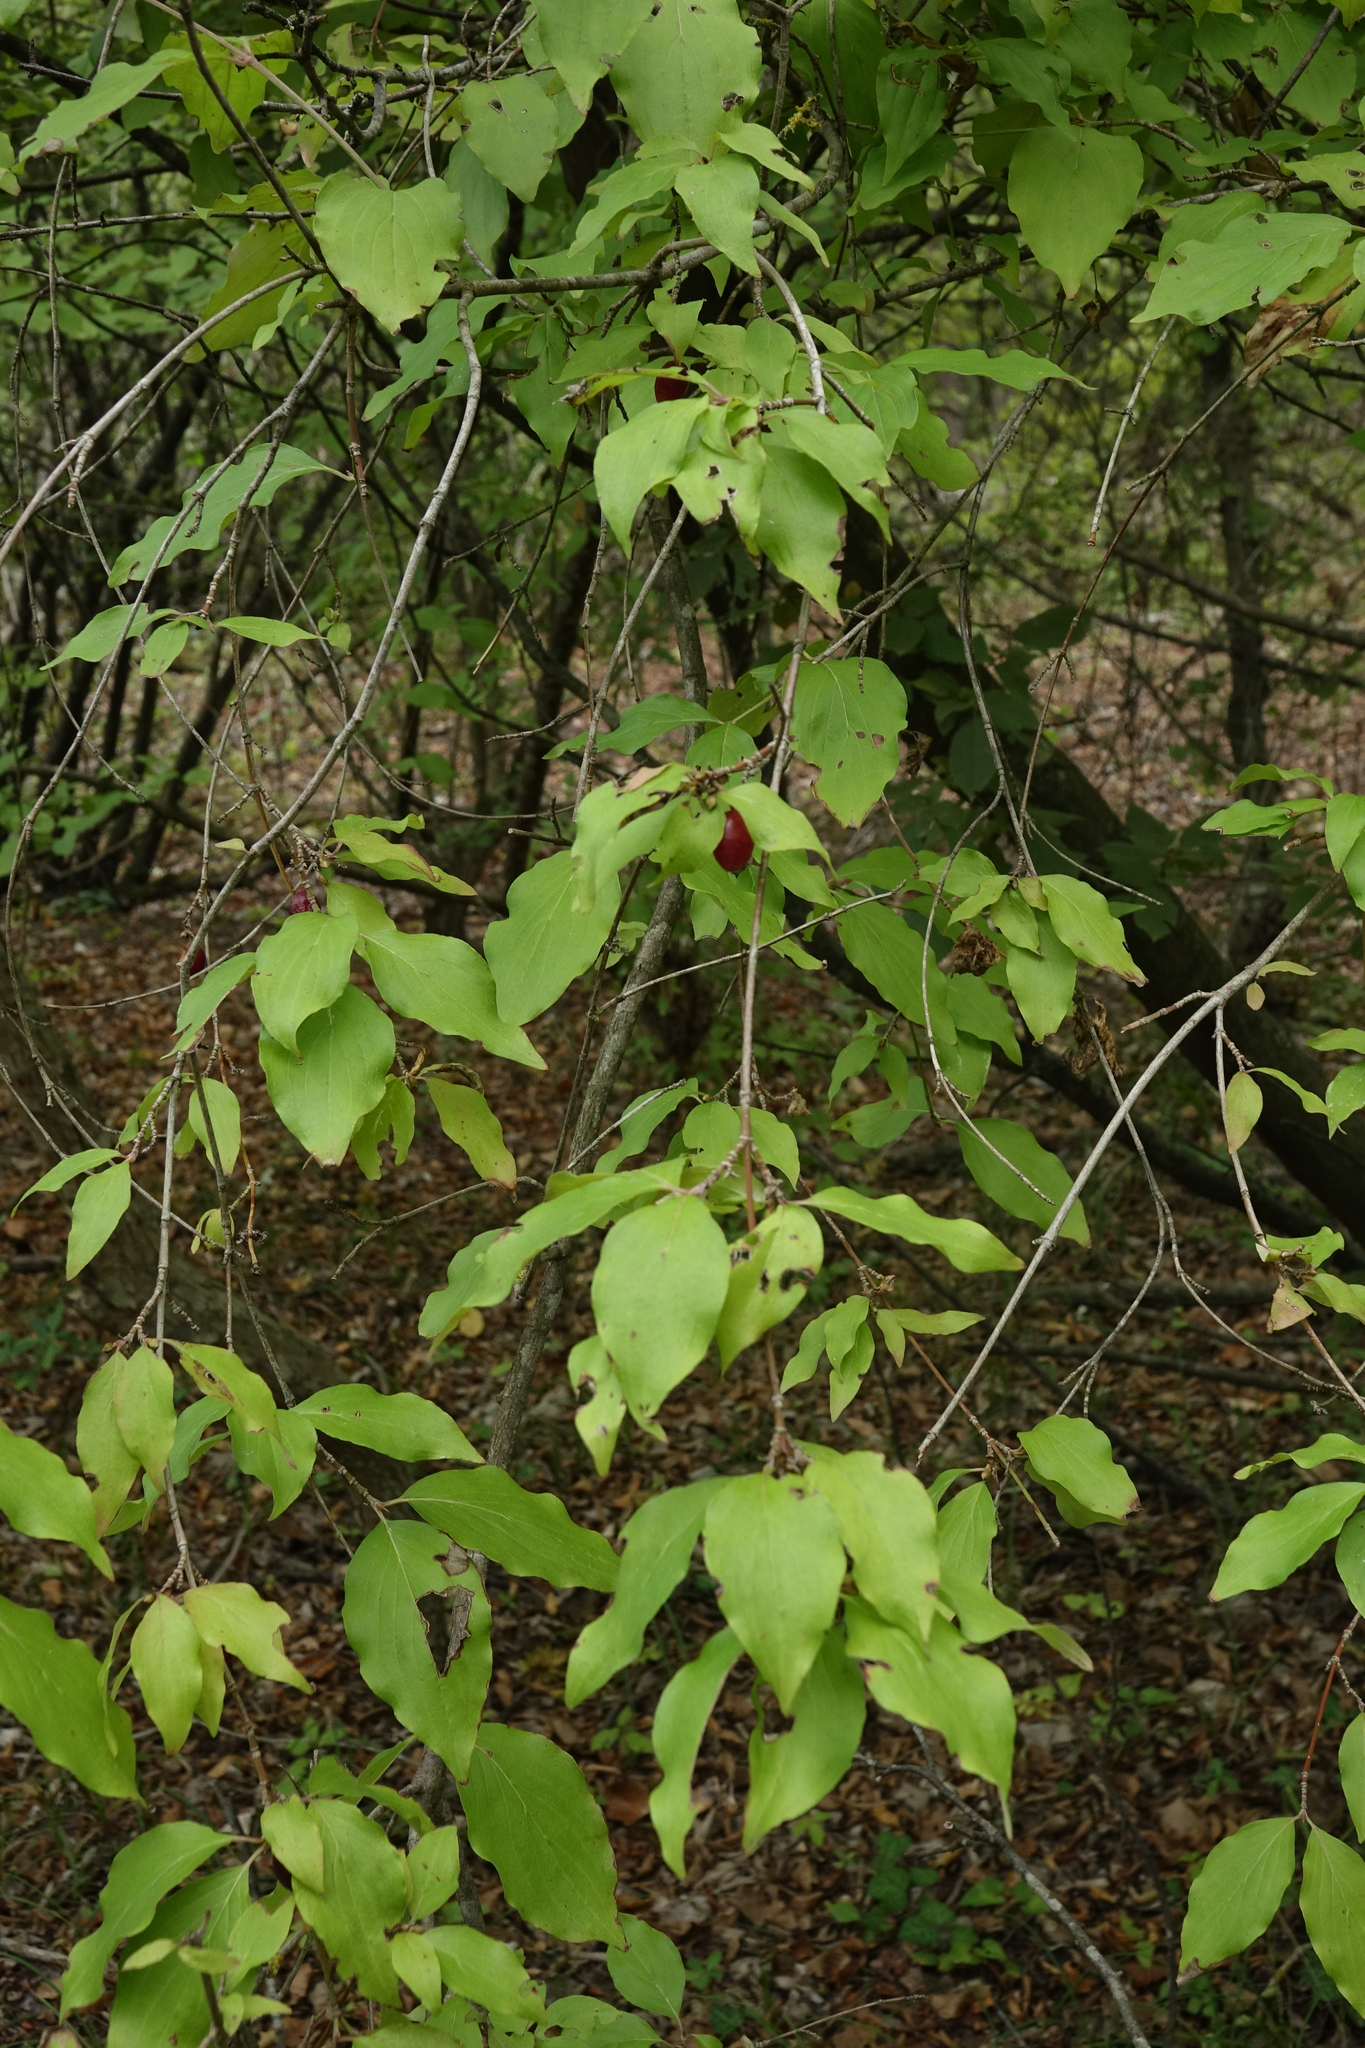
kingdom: Plantae
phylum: Tracheophyta
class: Magnoliopsida
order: Cornales
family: Cornaceae
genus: Cornus
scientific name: Cornus mas
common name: Cornelian-cherry
